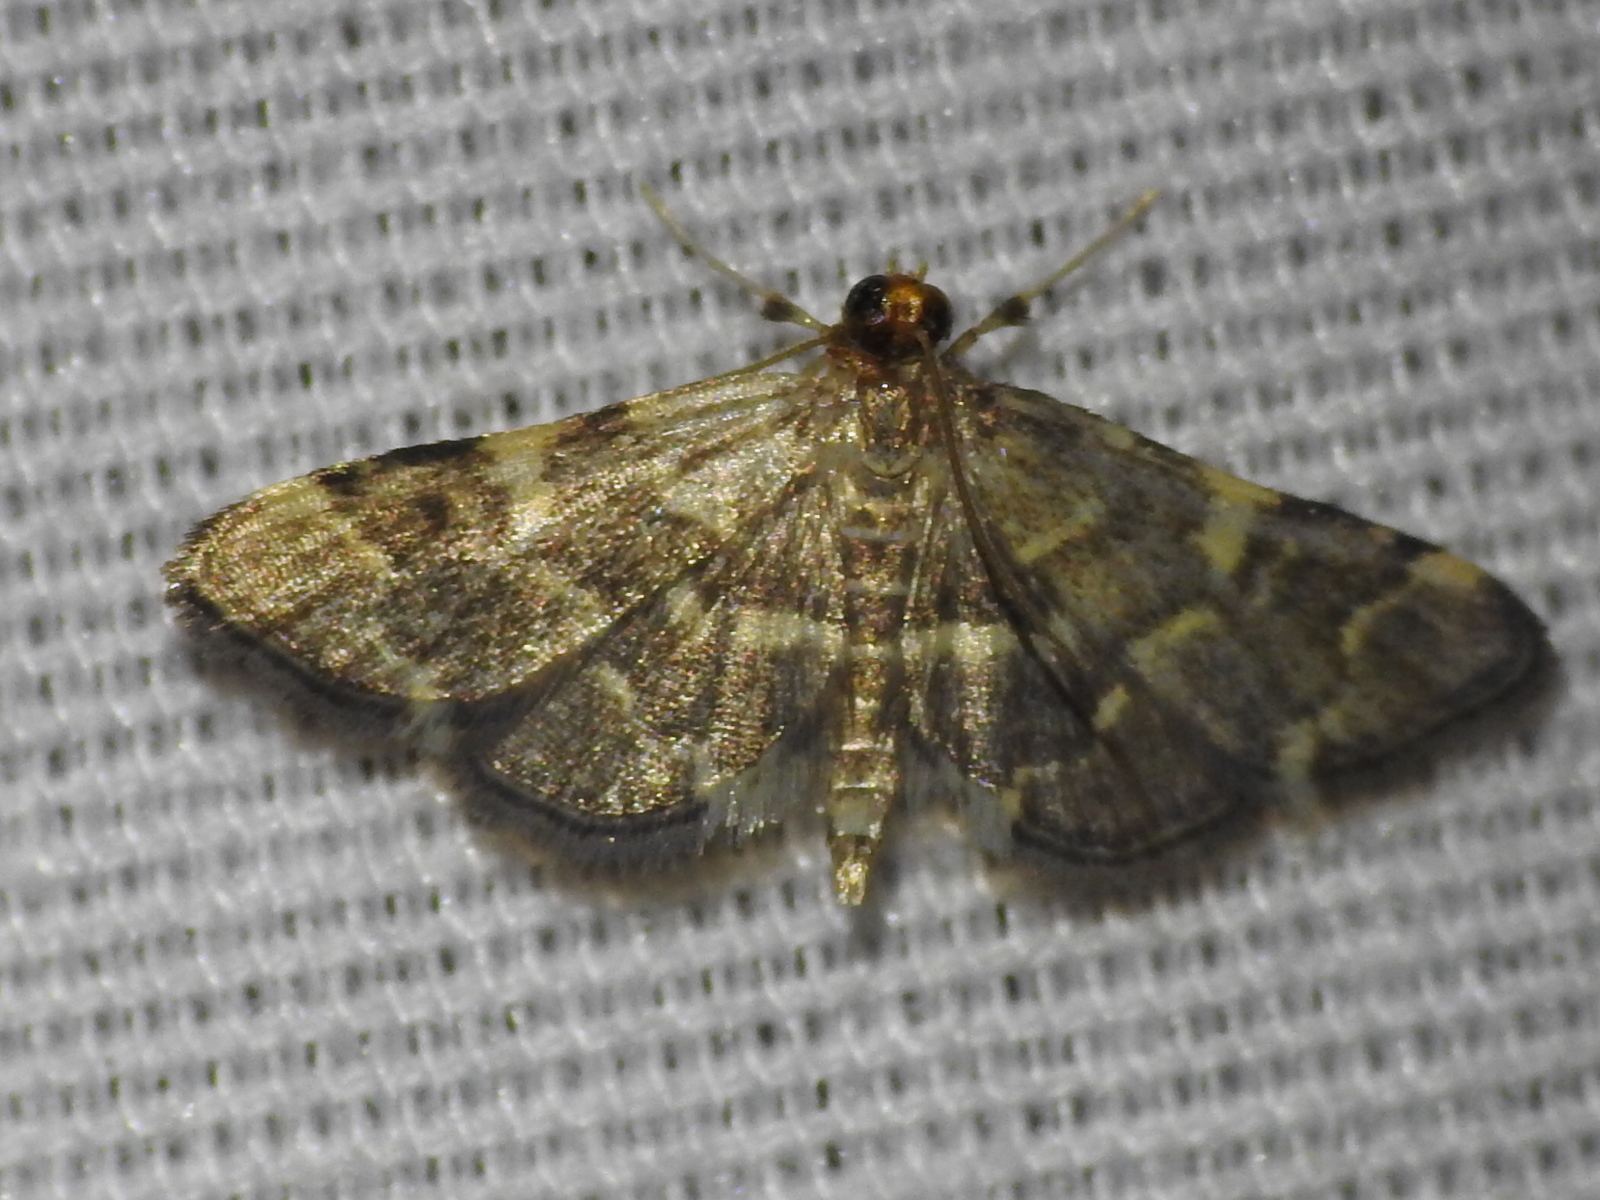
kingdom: Animalia
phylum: Arthropoda
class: Insecta
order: Lepidoptera
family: Crambidae
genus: Anageshna
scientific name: Anageshna primordialis
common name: Yellow-spotted webworm moth
